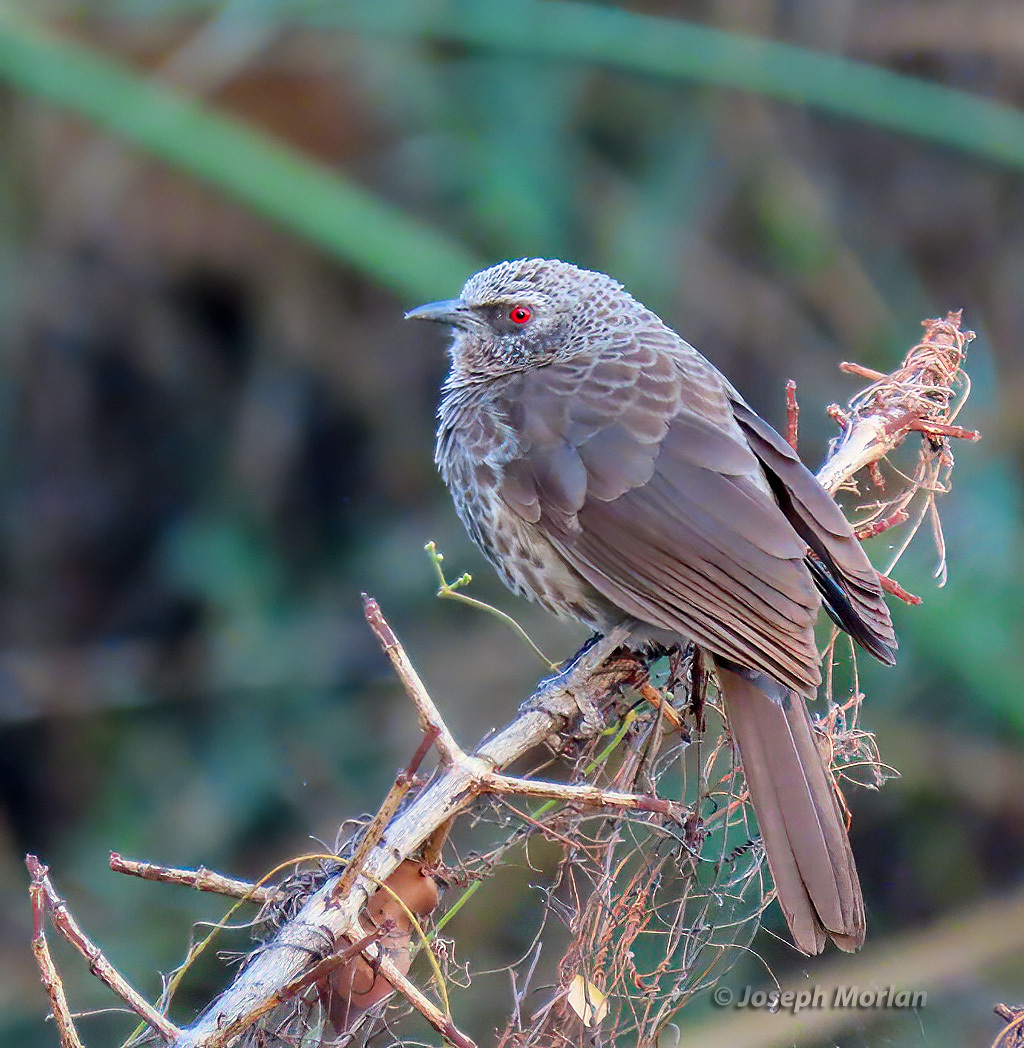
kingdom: Animalia
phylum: Chordata
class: Aves
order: Passeriformes
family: Leiothrichidae
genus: Turdoides
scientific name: Turdoides hartlaubii
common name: Hartlaub's babbler
